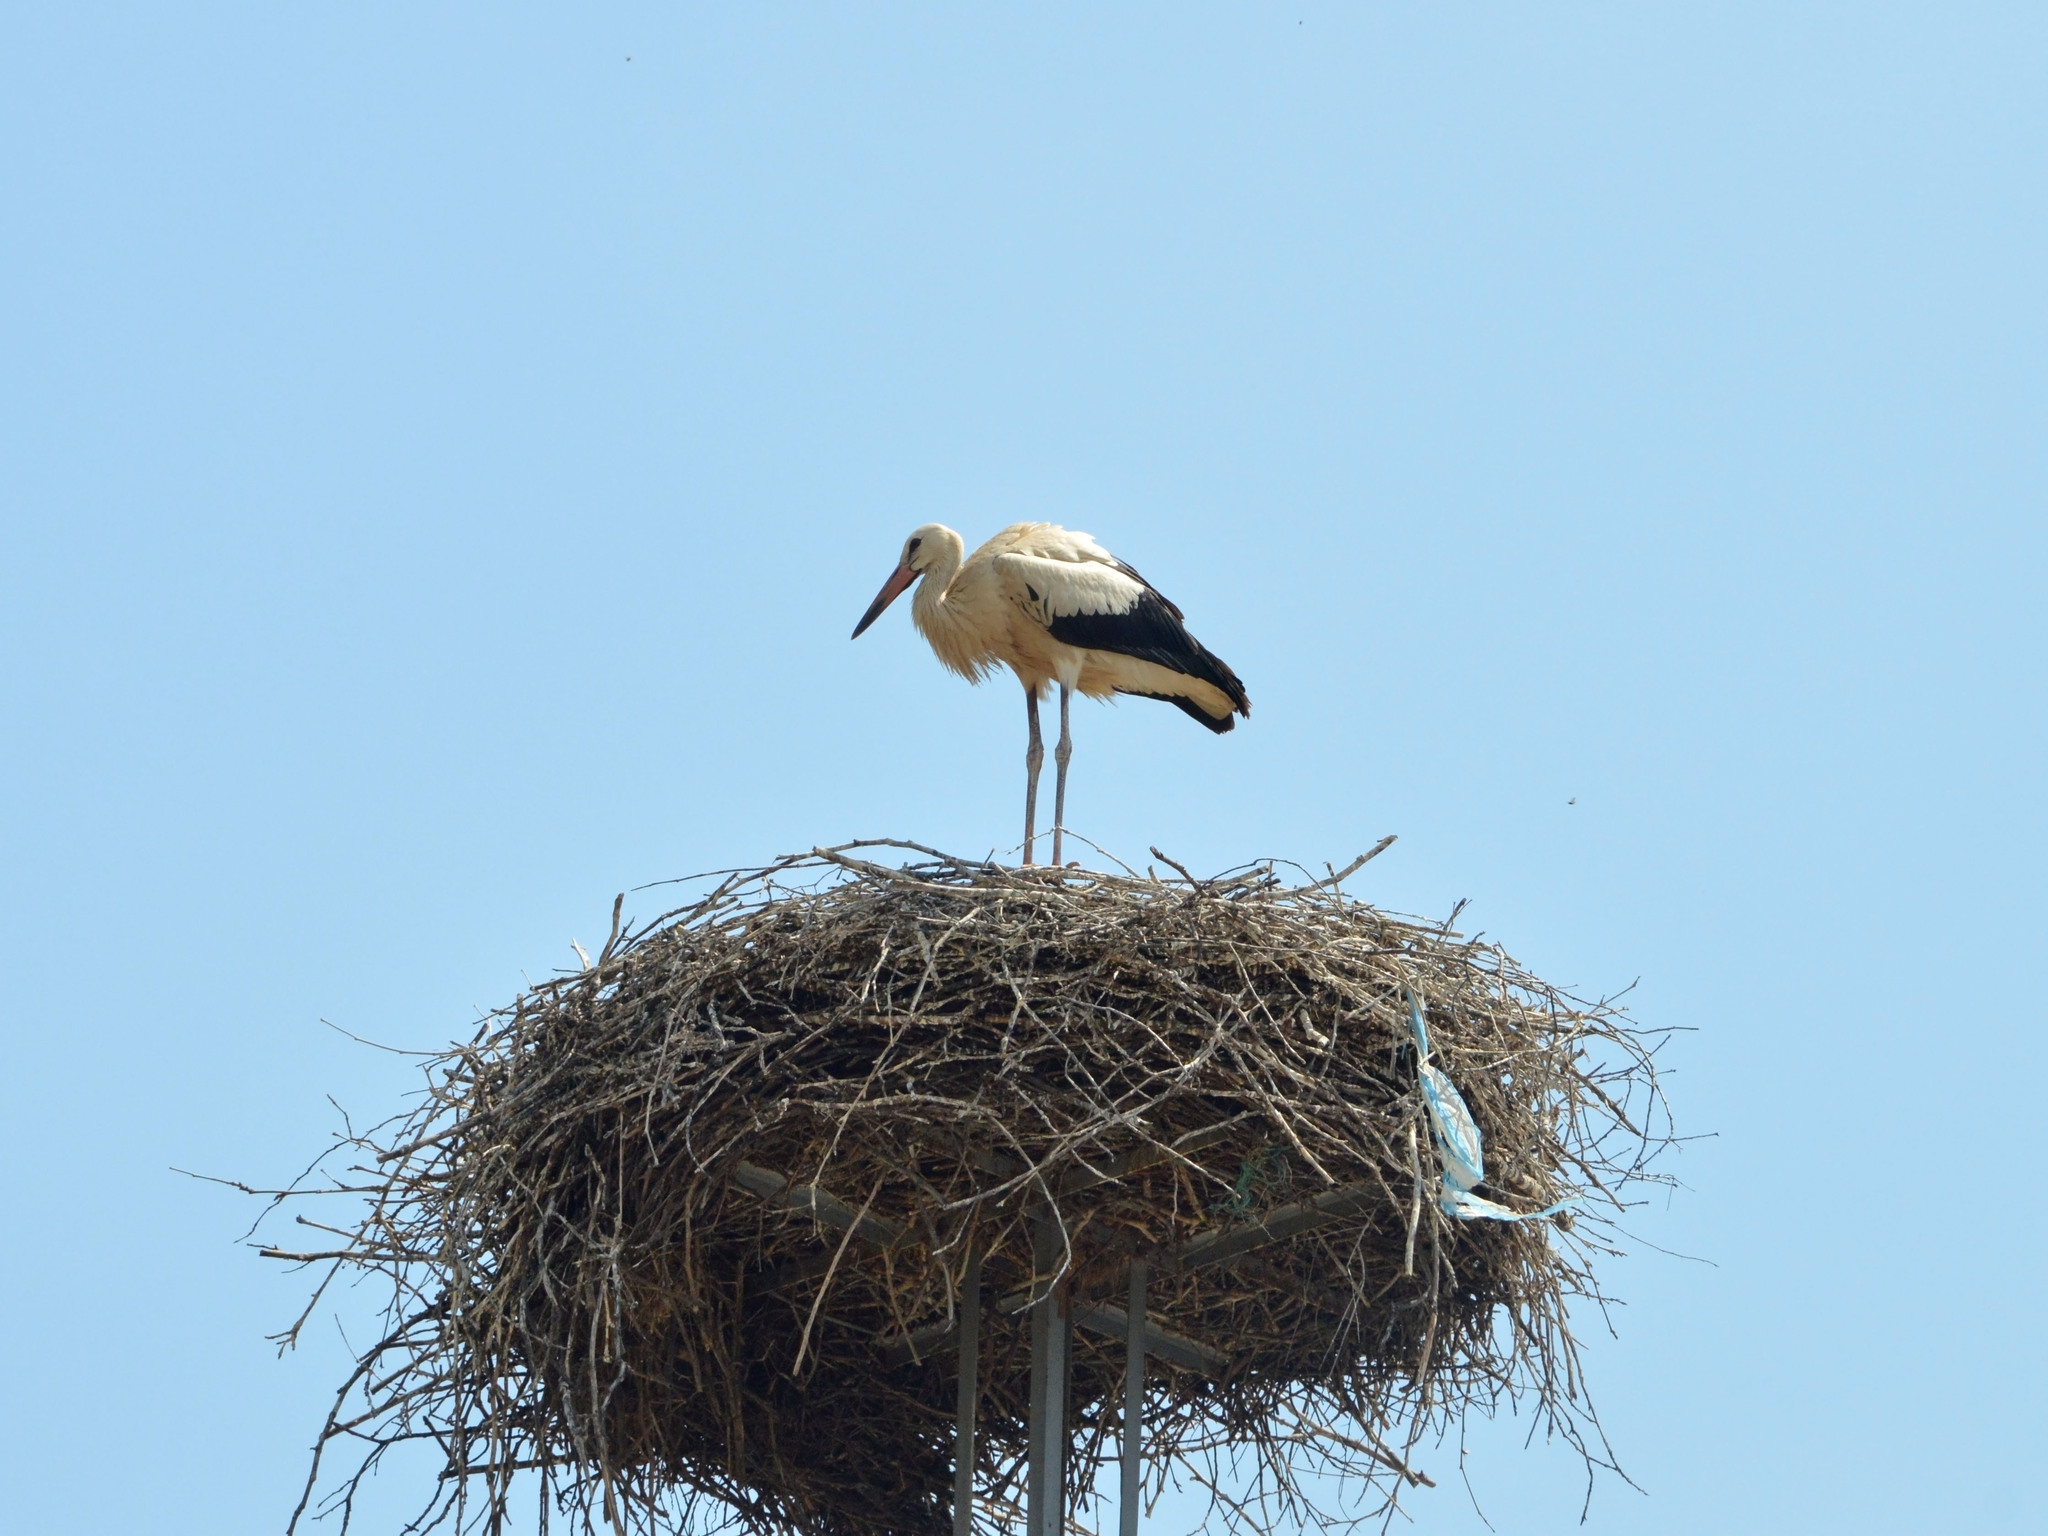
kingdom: Animalia
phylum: Chordata
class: Aves
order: Ciconiiformes
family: Ciconiidae
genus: Ciconia
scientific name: Ciconia ciconia
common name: White stork
